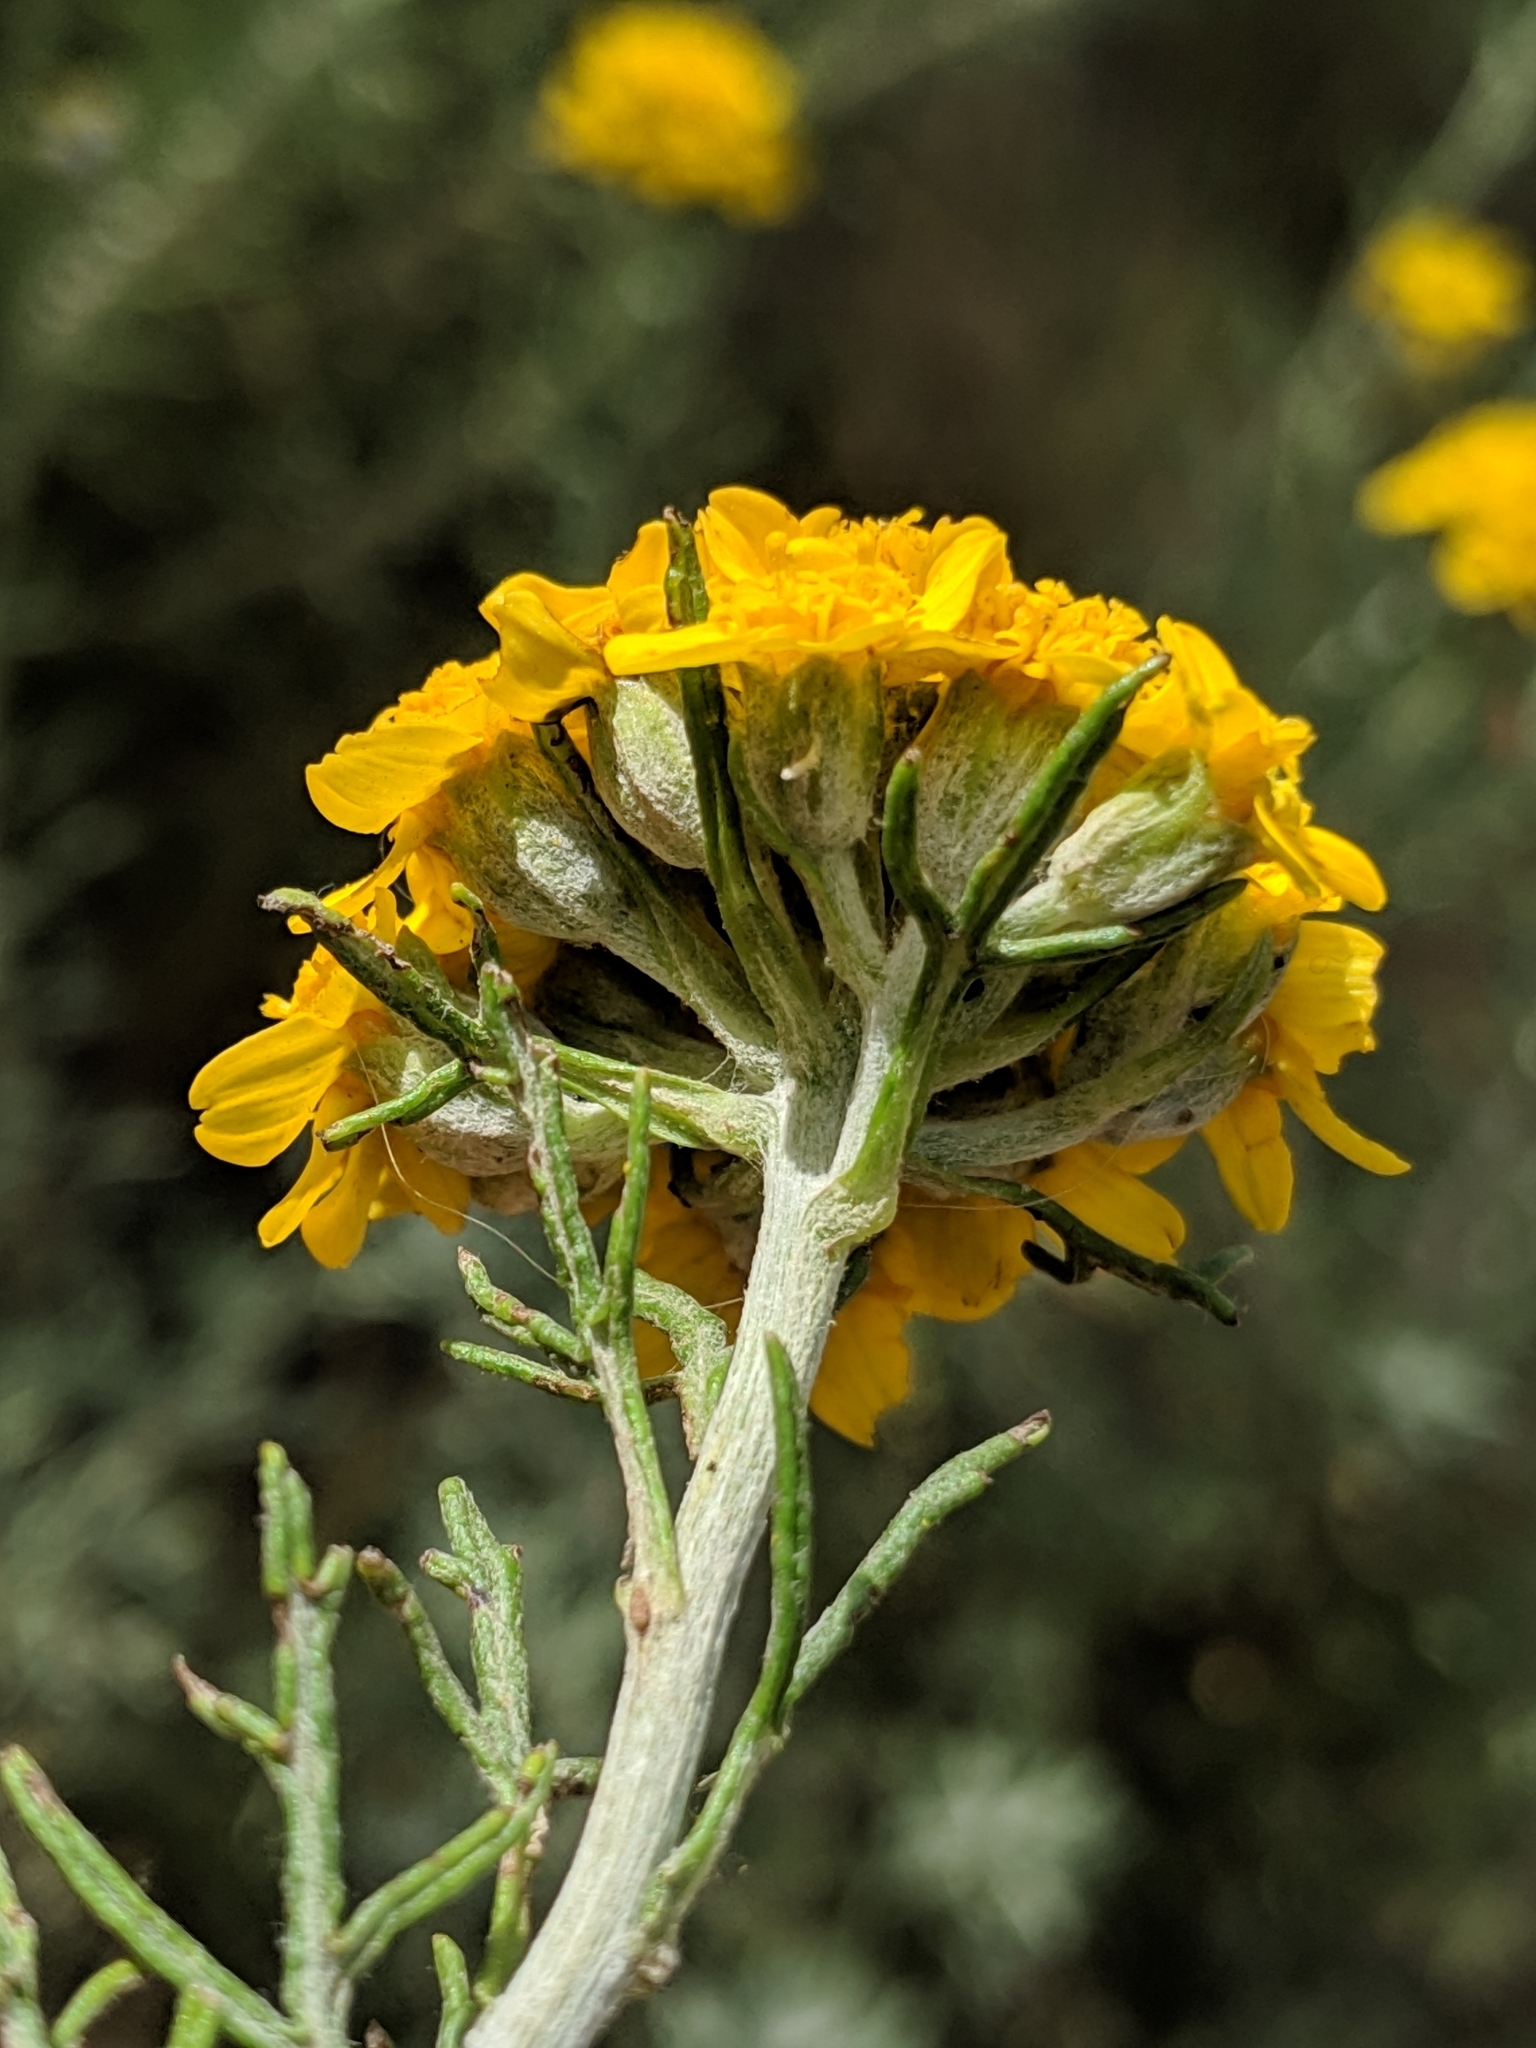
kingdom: Plantae
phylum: Tracheophyta
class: Magnoliopsida
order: Asterales
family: Asteraceae
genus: Eriophyllum
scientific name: Eriophyllum confertiflorum
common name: Golden-yarrow
